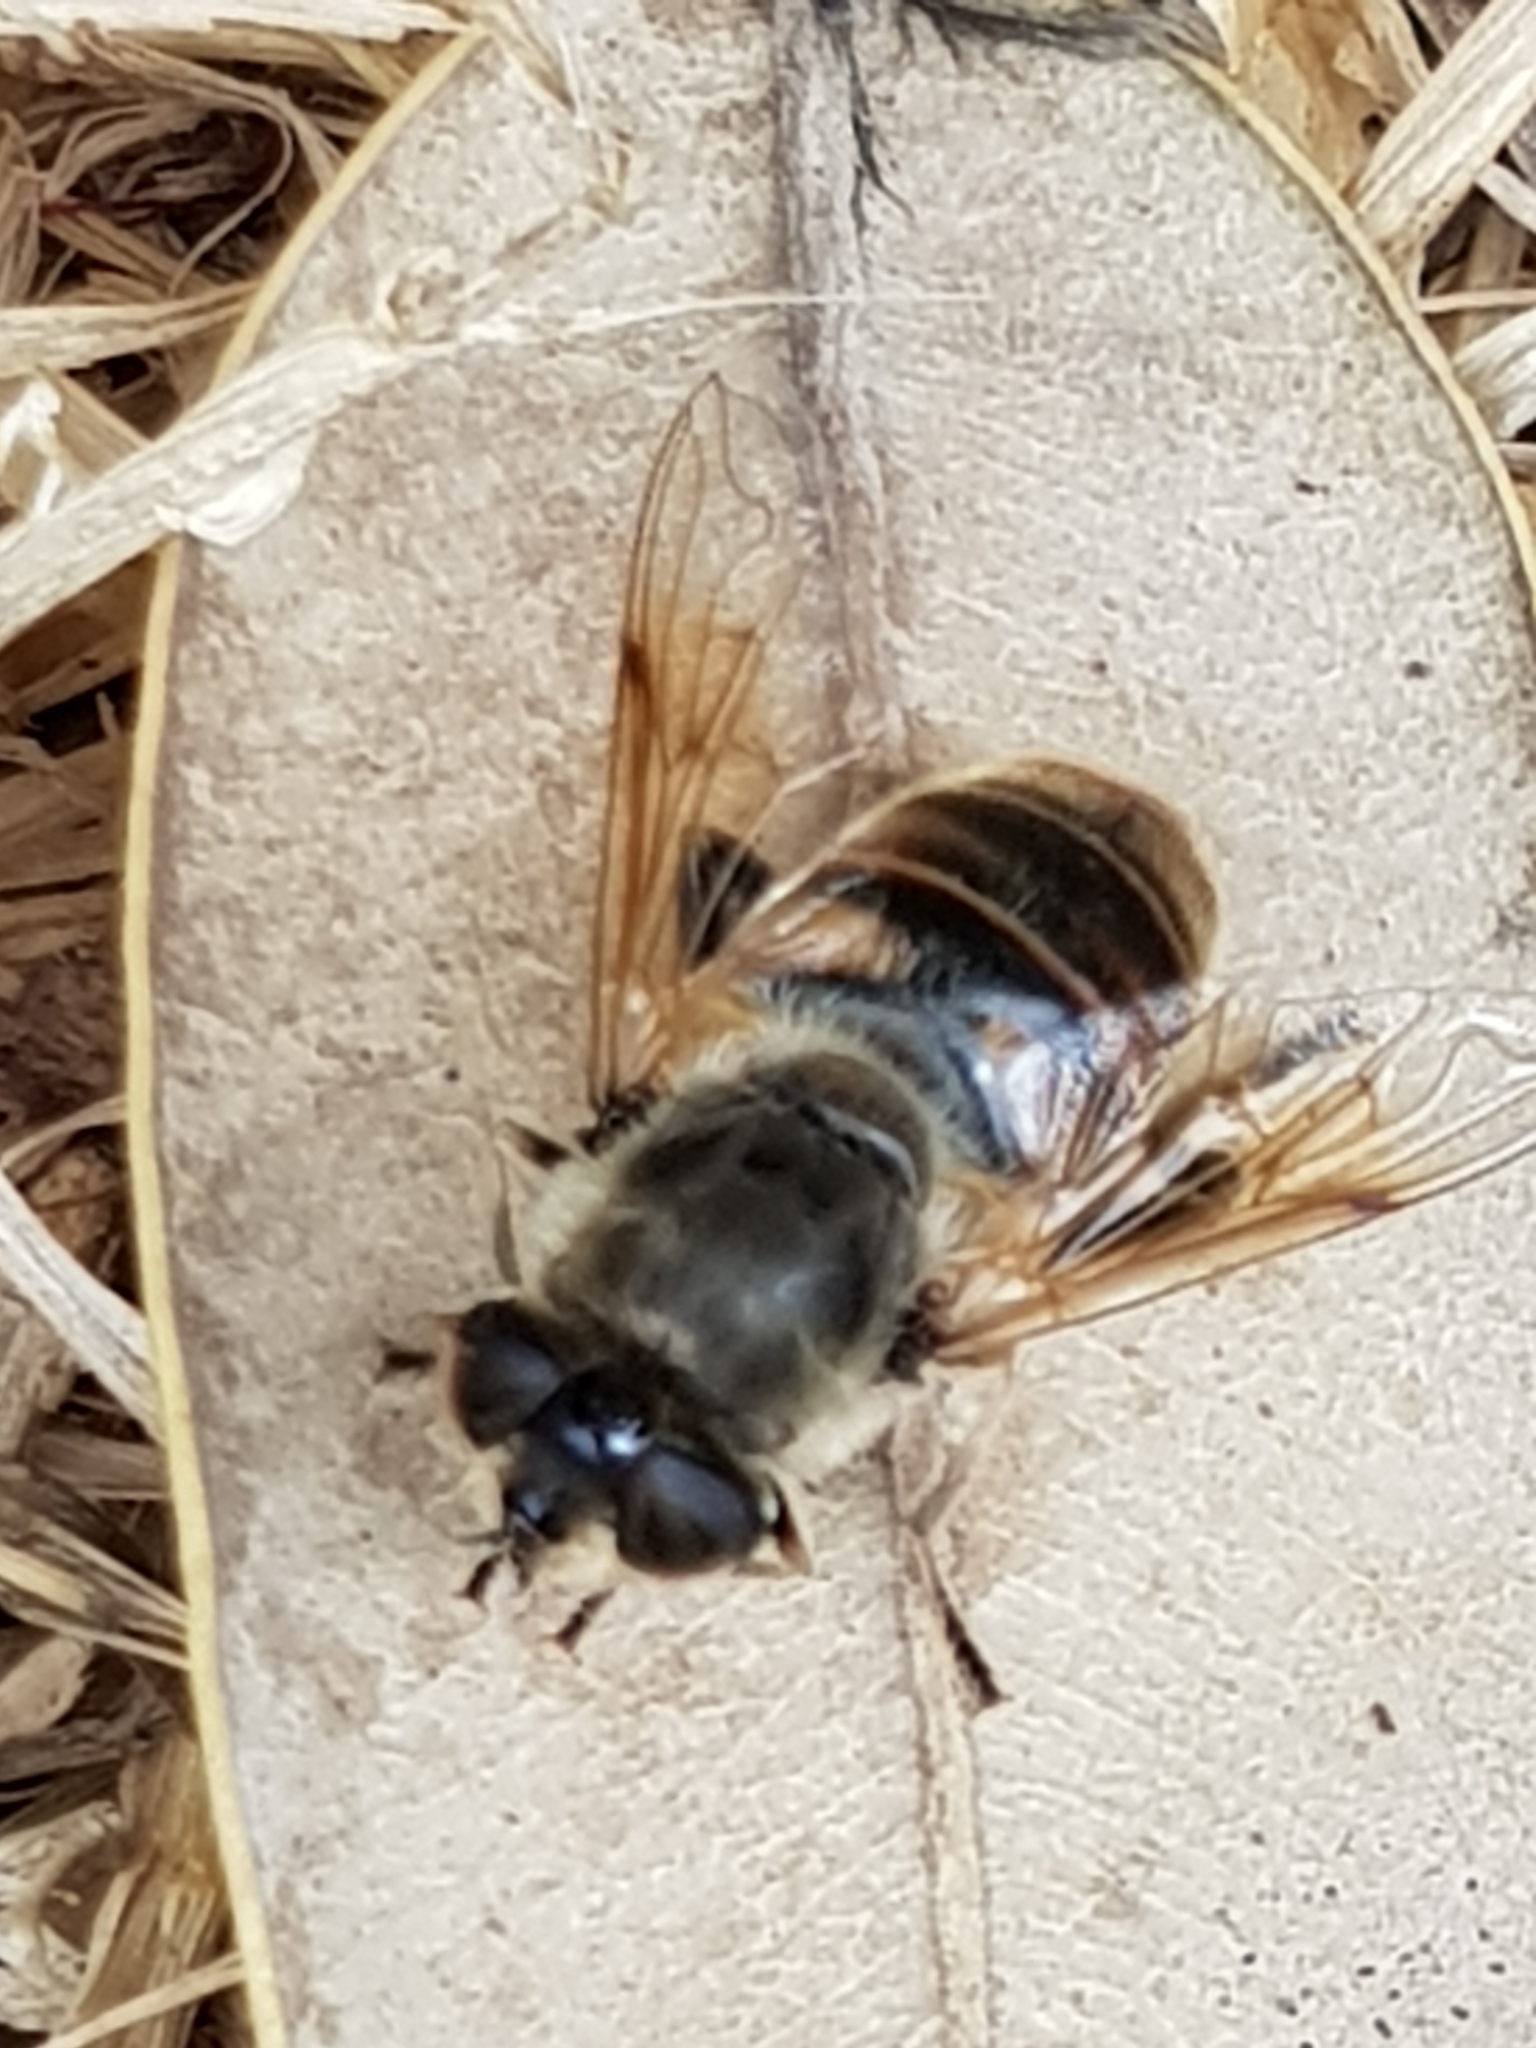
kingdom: Animalia
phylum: Arthropoda
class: Insecta
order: Diptera
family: Syrphidae
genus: Eristalis
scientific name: Eristalis tenax
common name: Drone fly
